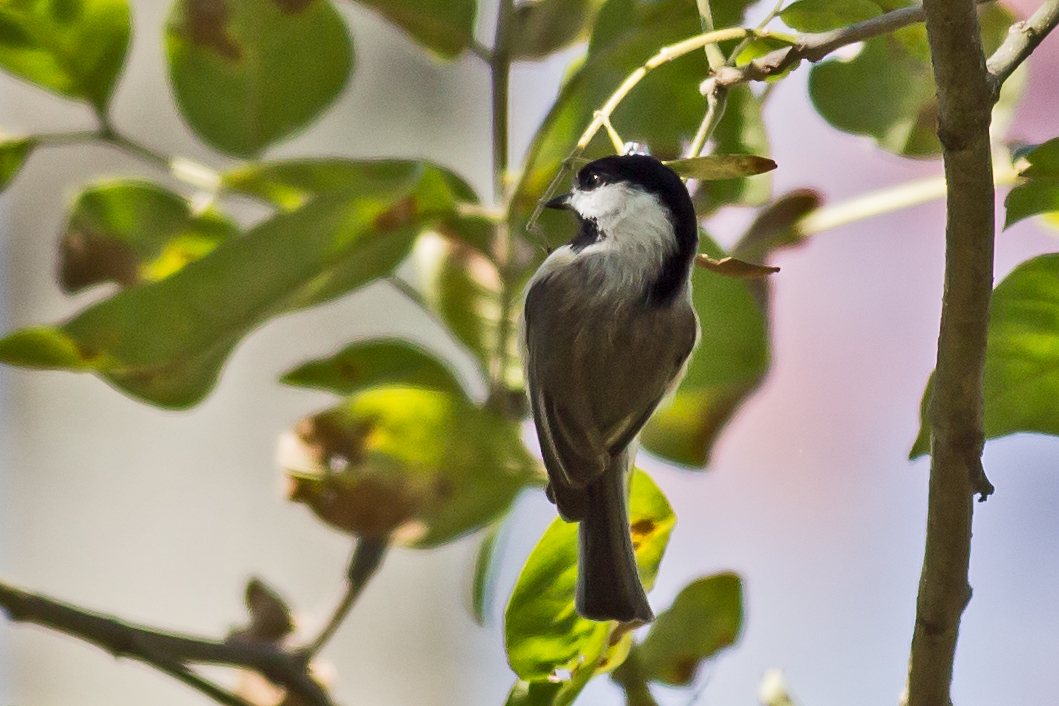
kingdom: Animalia
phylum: Chordata
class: Aves
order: Passeriformes
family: Paridae
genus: Poecile
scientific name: Poecile carolinensis
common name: Carolina chickadee
